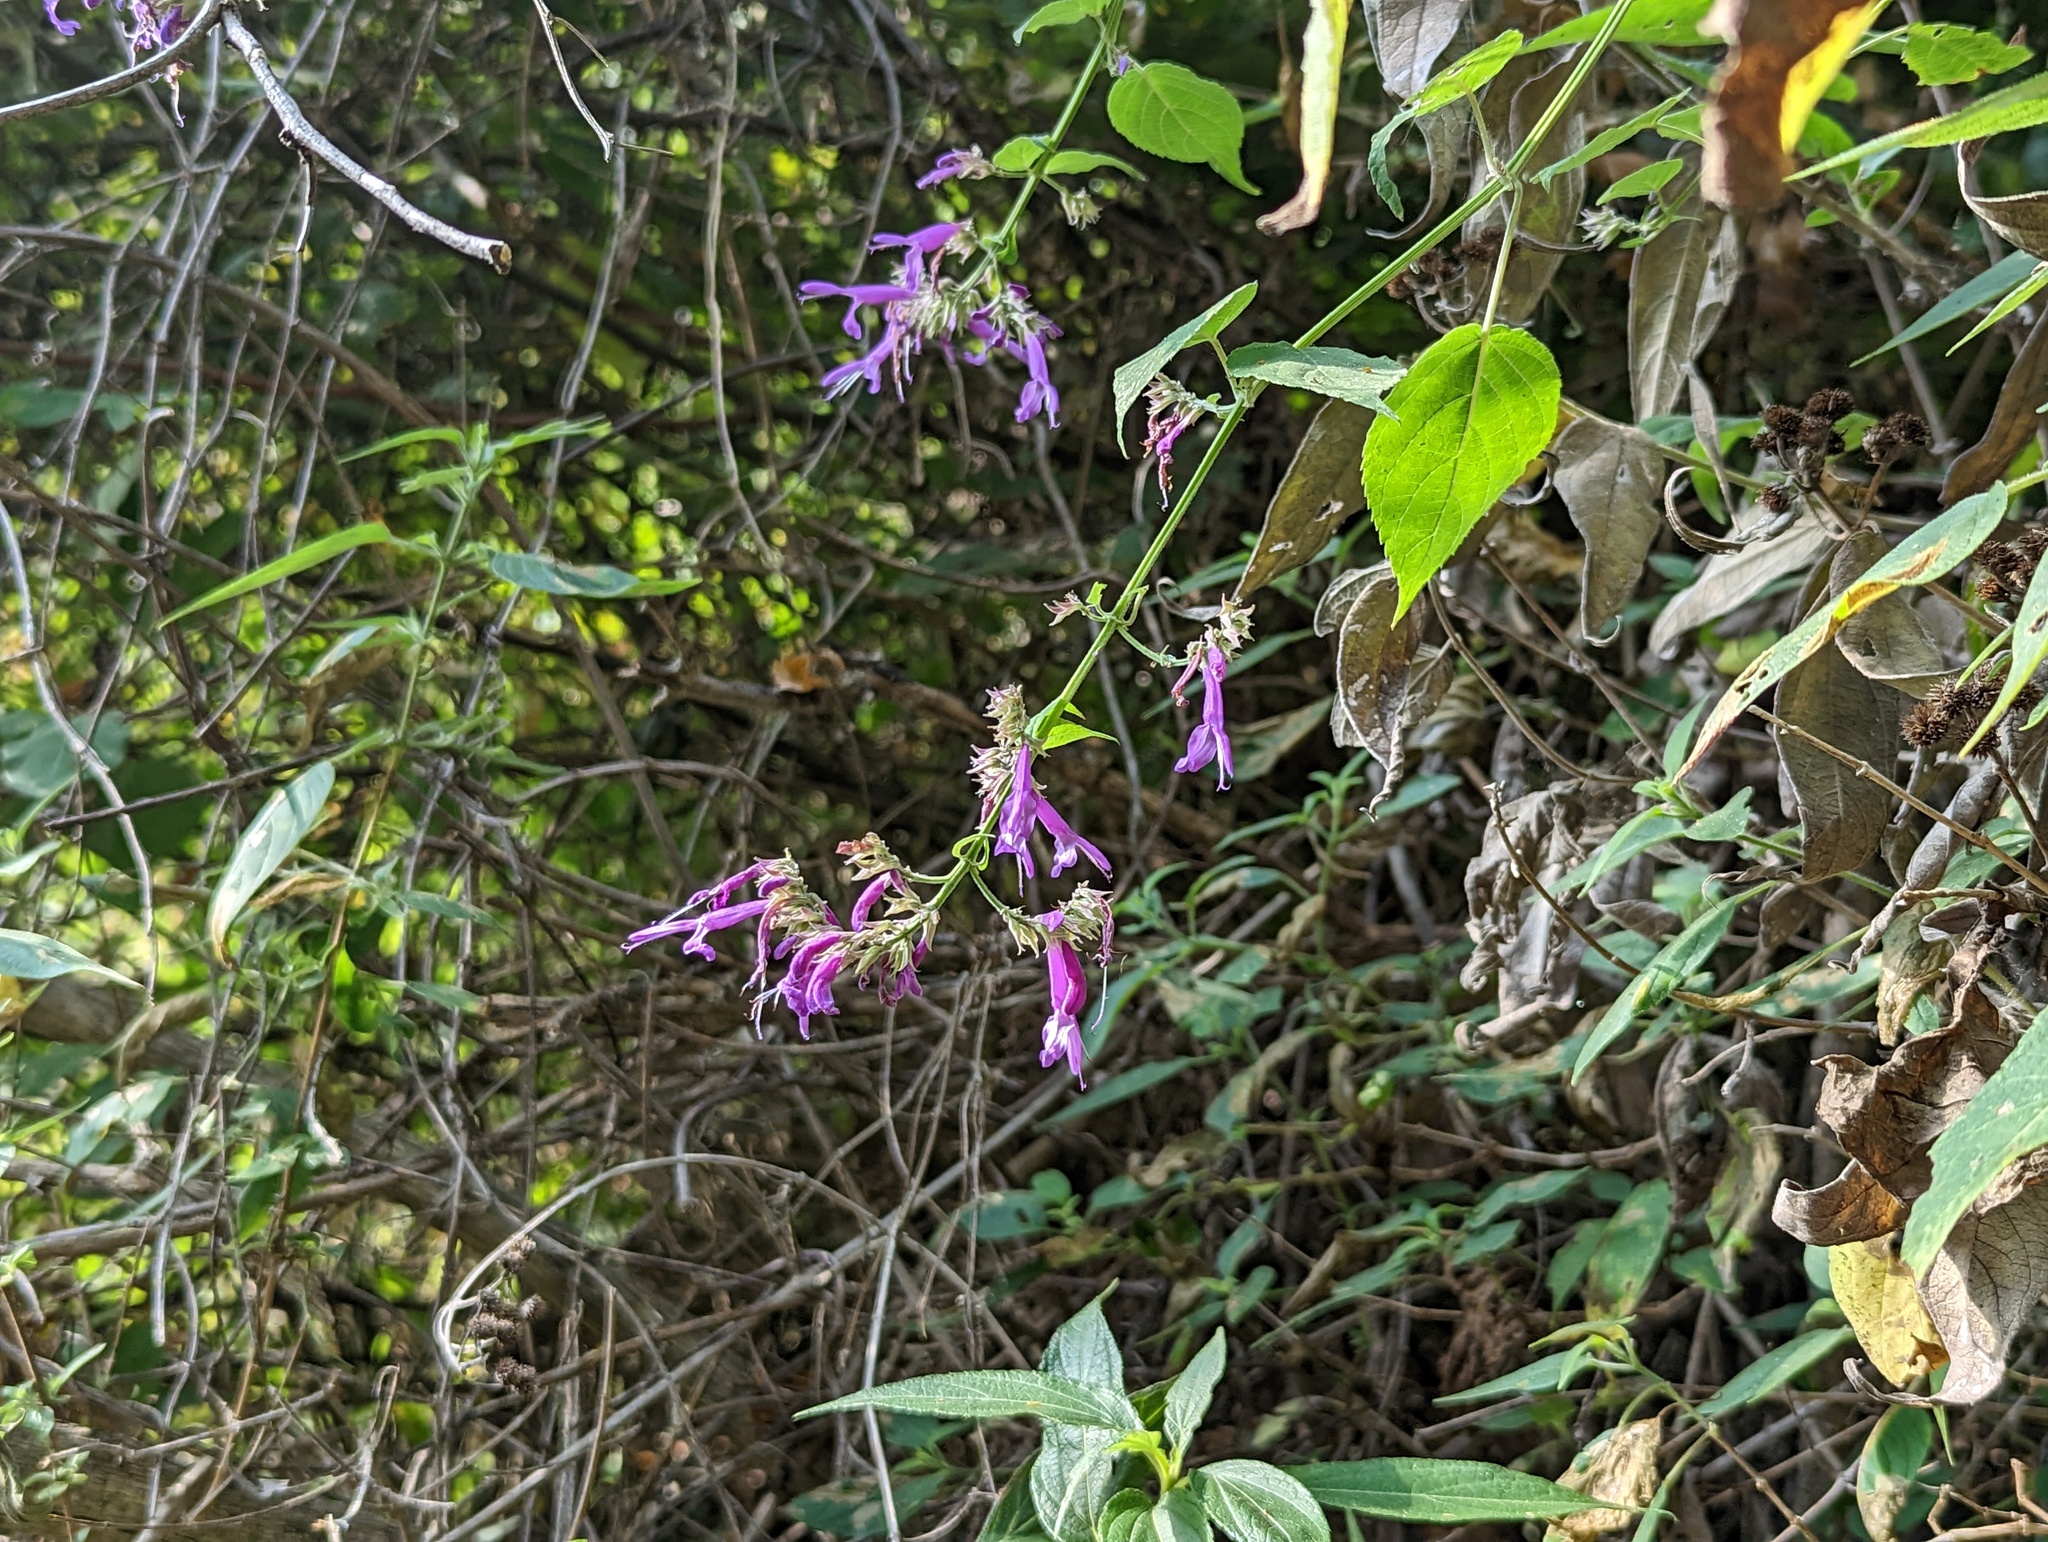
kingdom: Plantae
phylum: Tracheophyta
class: Magnoliopsida
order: Lamiales
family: Lamiaceae
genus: Salvia
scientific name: Salvia purpurea
